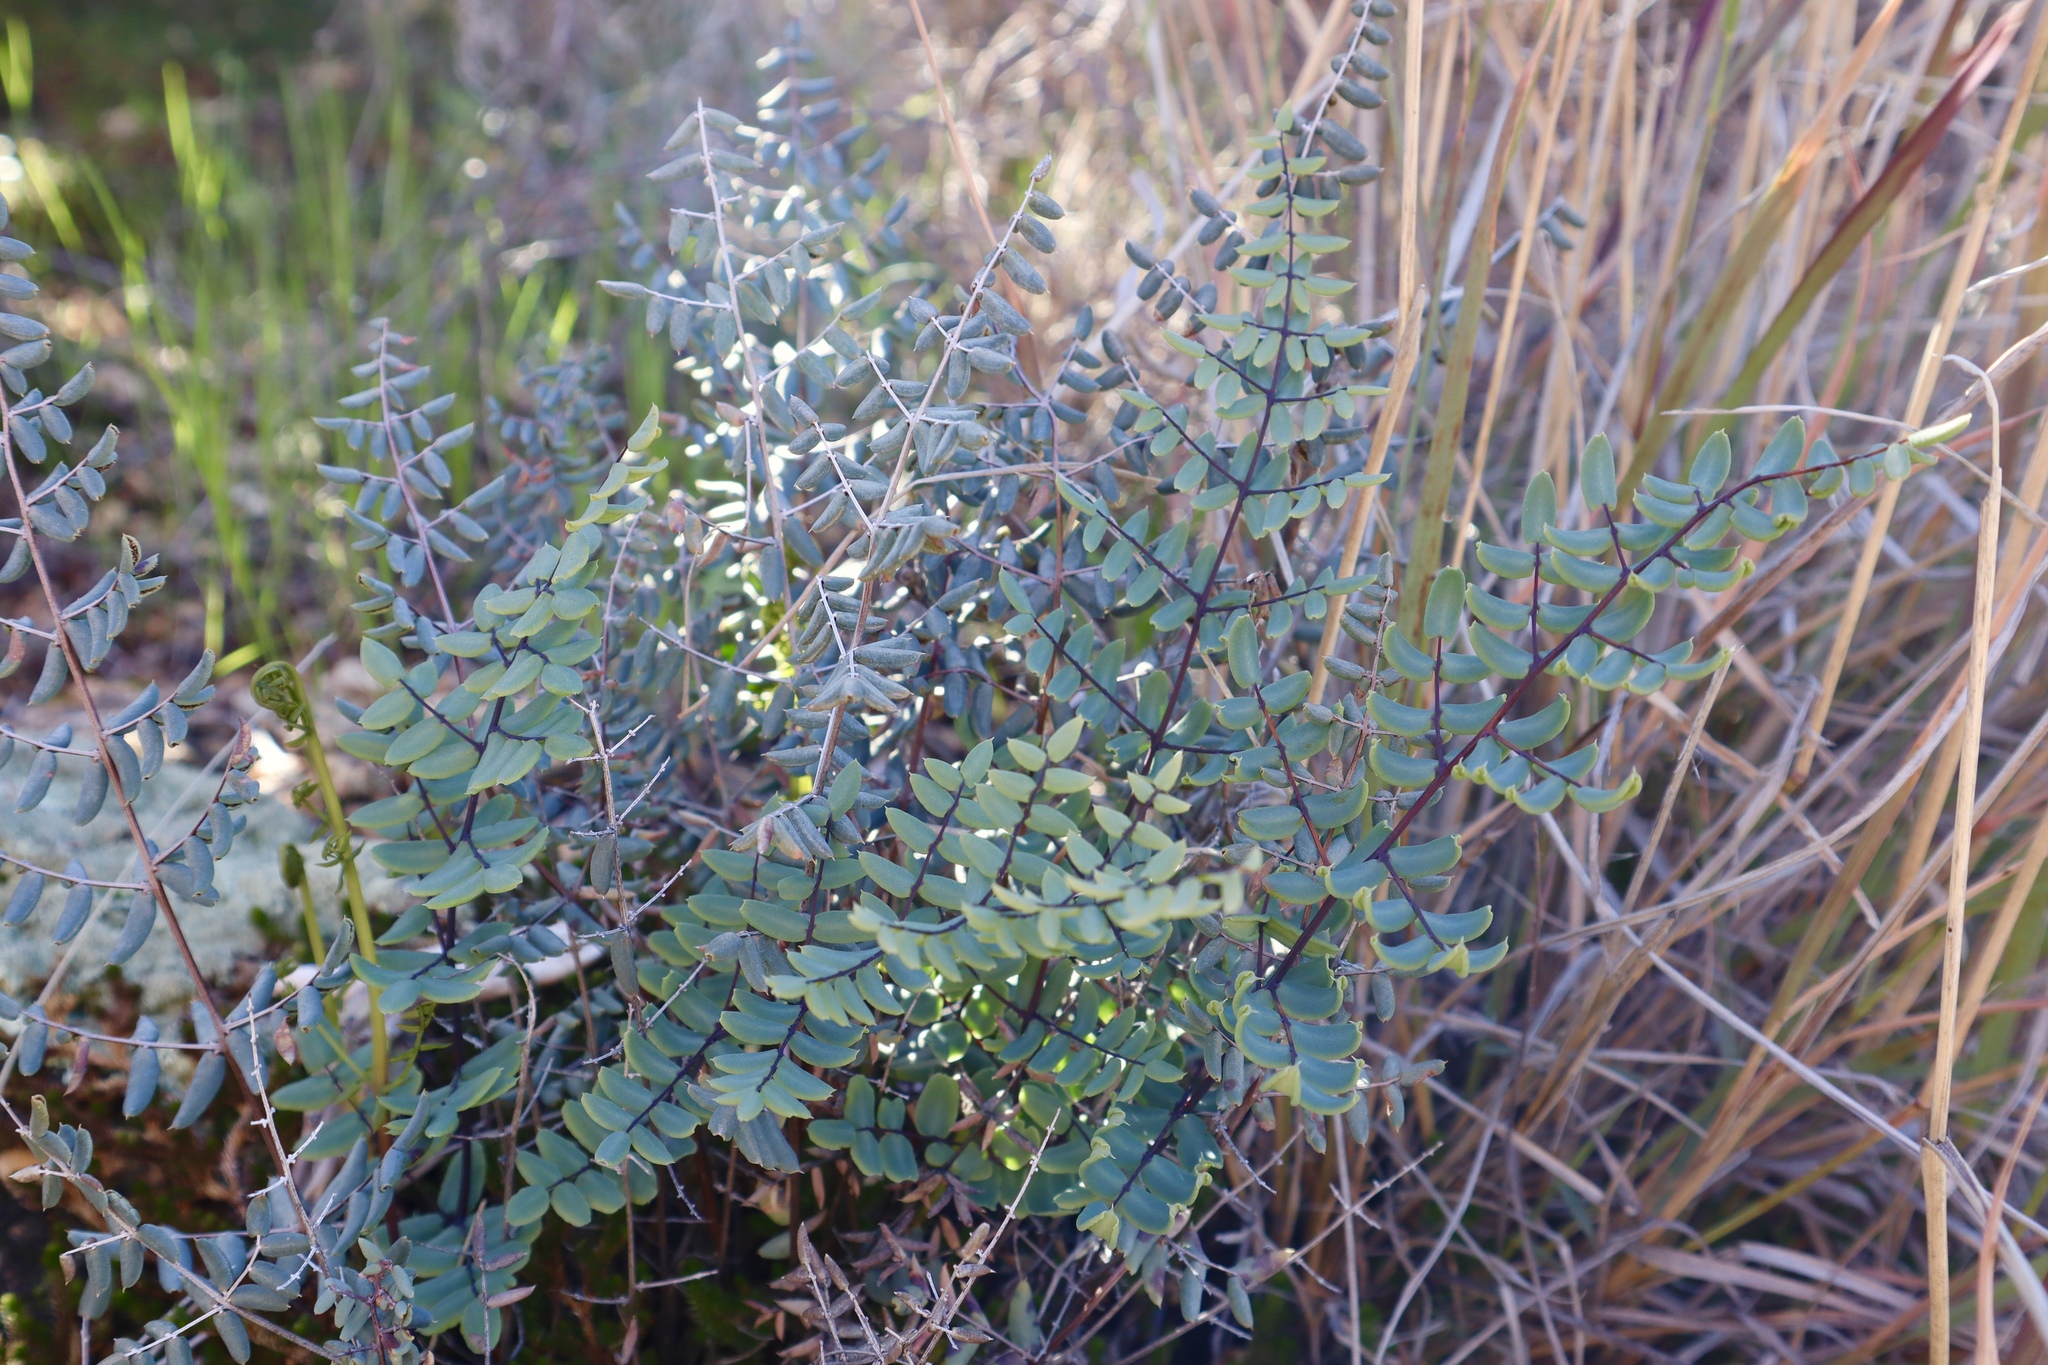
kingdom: Plantae
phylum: Tracheophyta
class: Polypodiopsida
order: Polypodiales
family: Pteridaceae
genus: Pellaea
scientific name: Pellaea truncata
